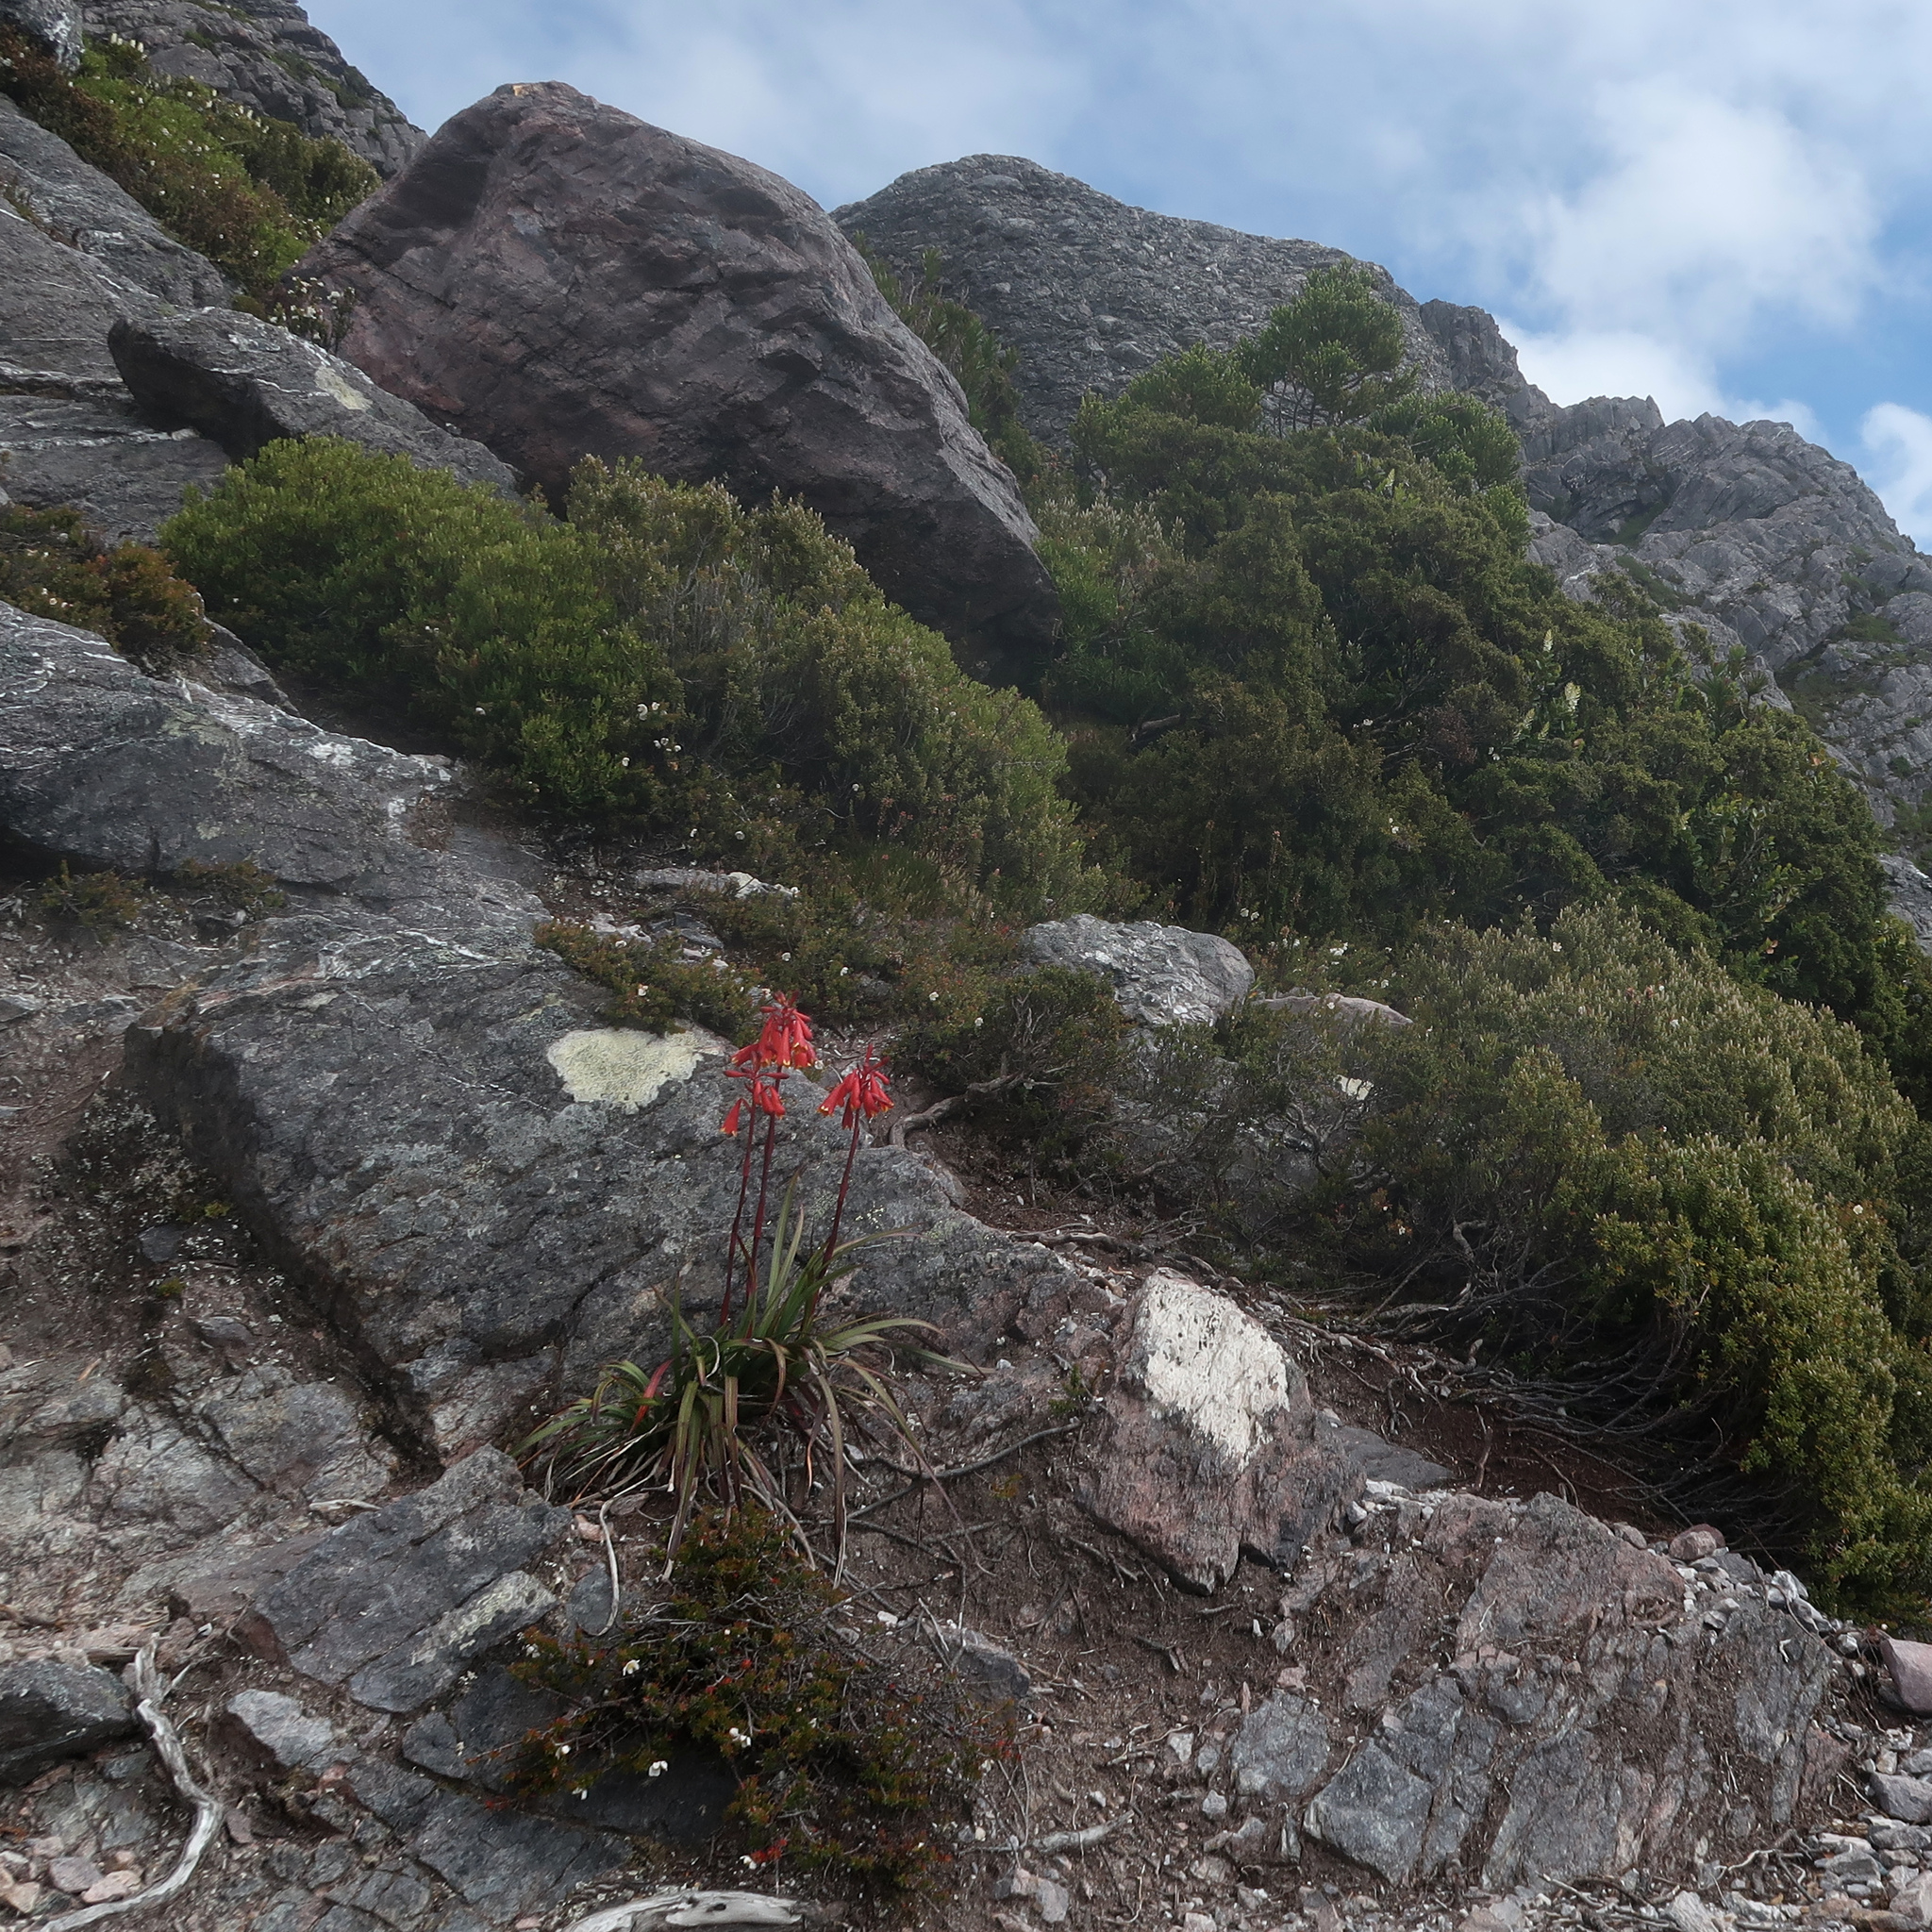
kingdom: Plantae
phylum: Tracheophyta
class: Liliopsida
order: Asparagales
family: Blandfordiaceae
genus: Blandfordia
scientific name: Blandfordia punicea
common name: Tasmanian christmas-bell
